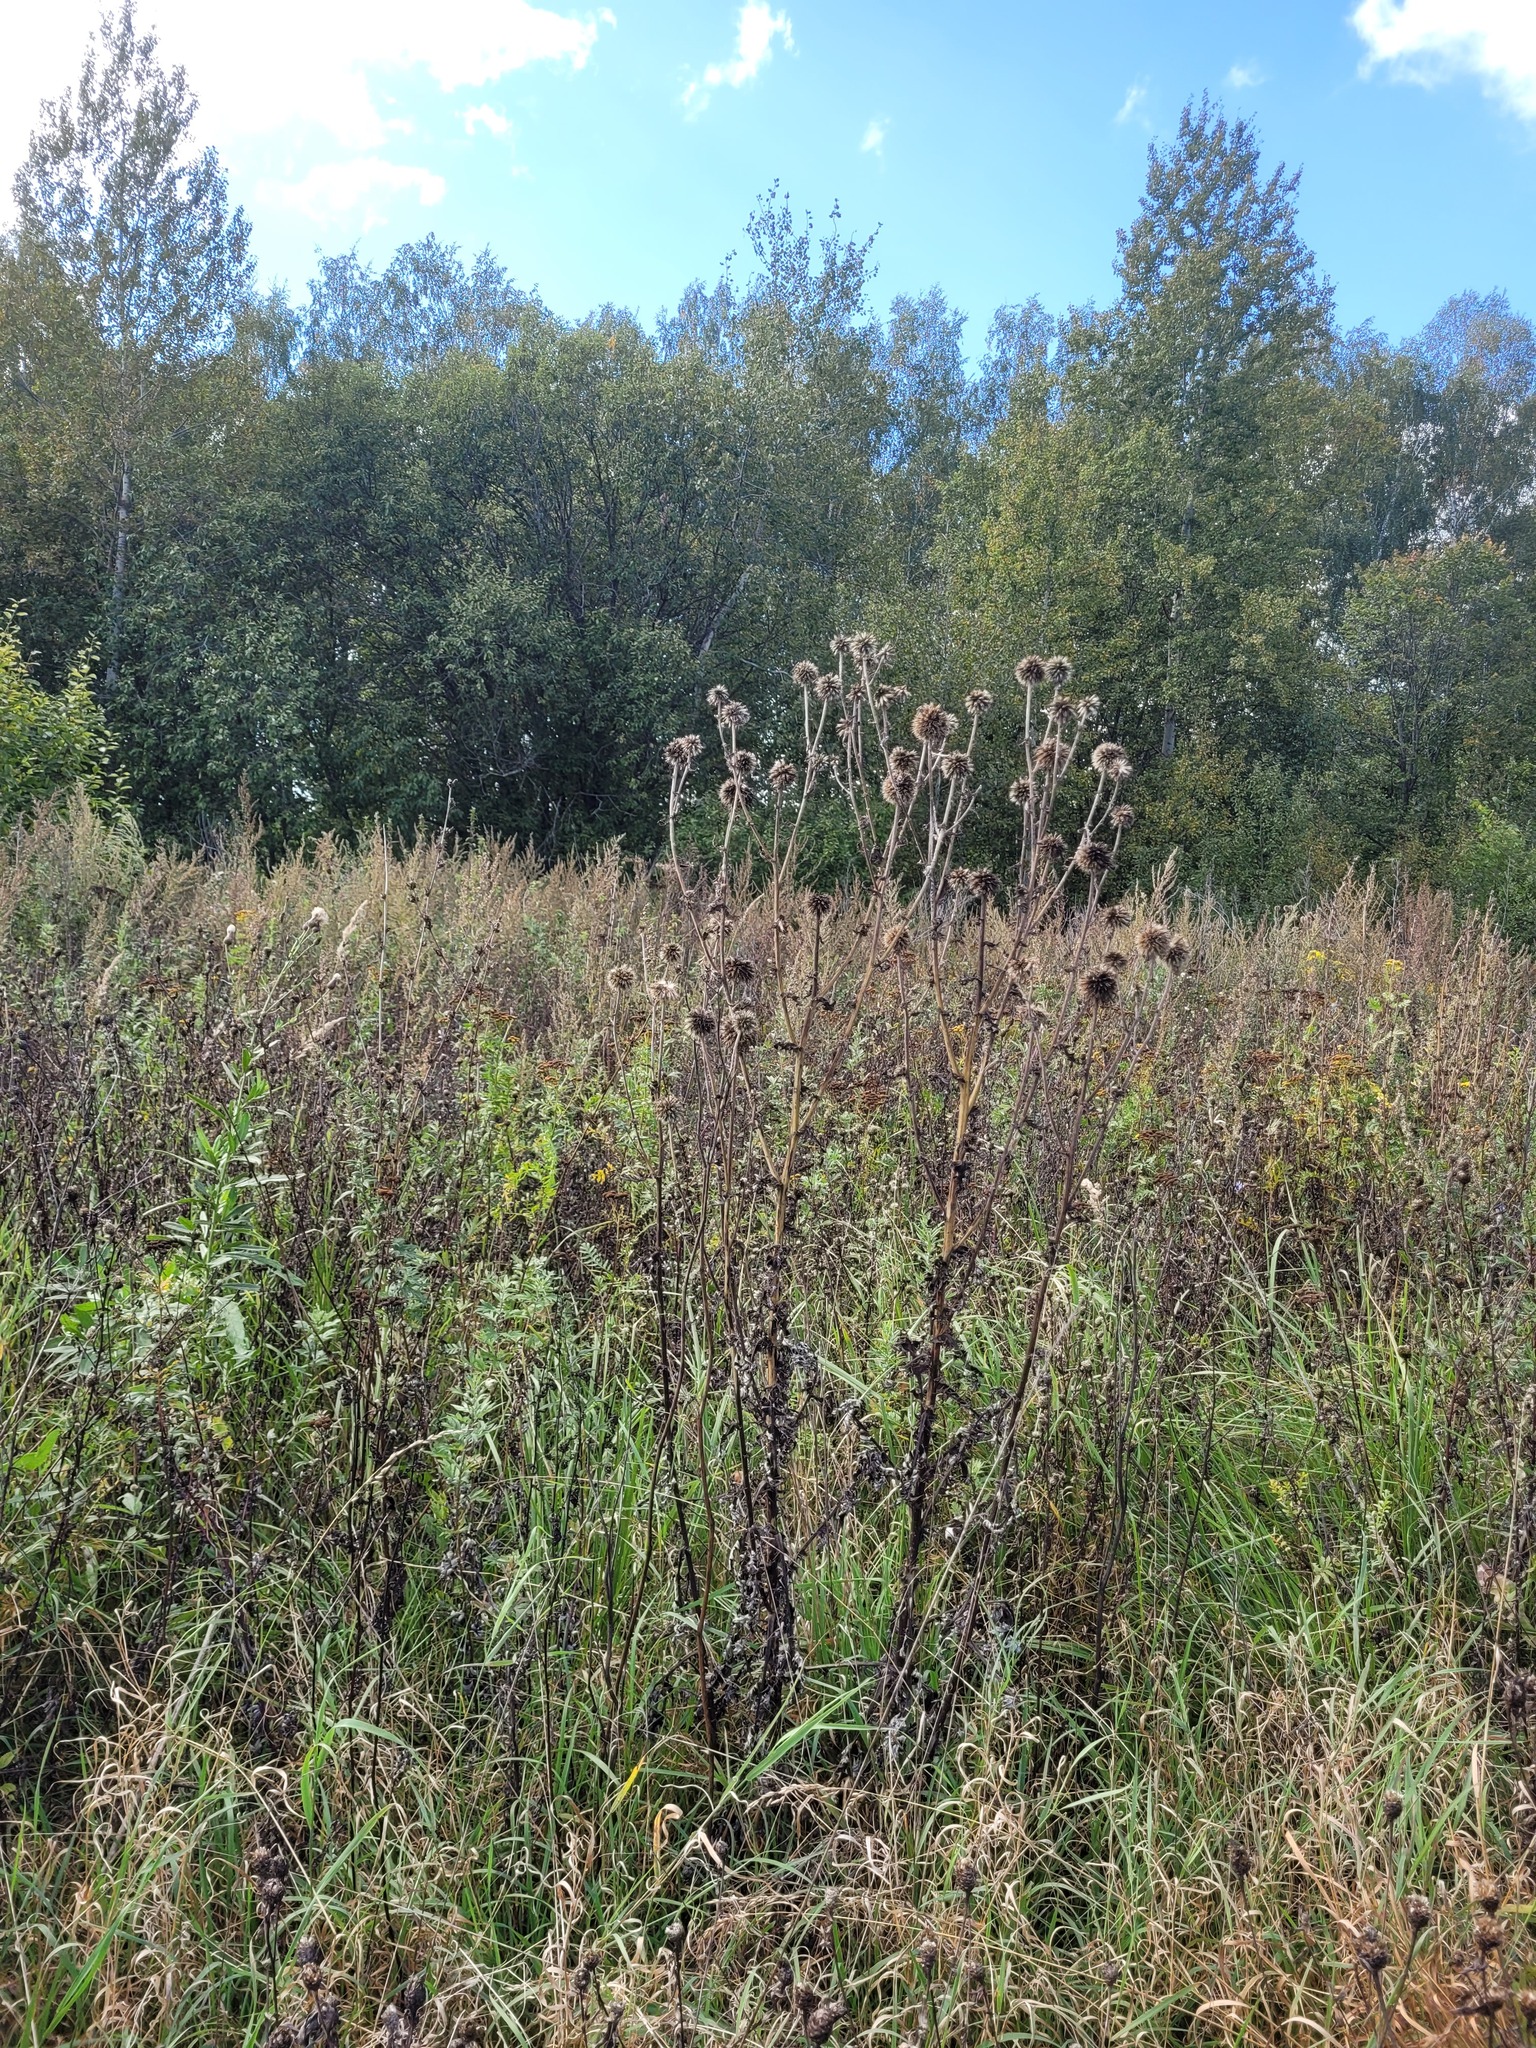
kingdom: Plantae
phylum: Tracheophyta
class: Magnoliopsida
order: Asterales
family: Asteraceae
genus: Echinops
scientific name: Echinops sphaerocephalus
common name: Glandular globe-thistle
